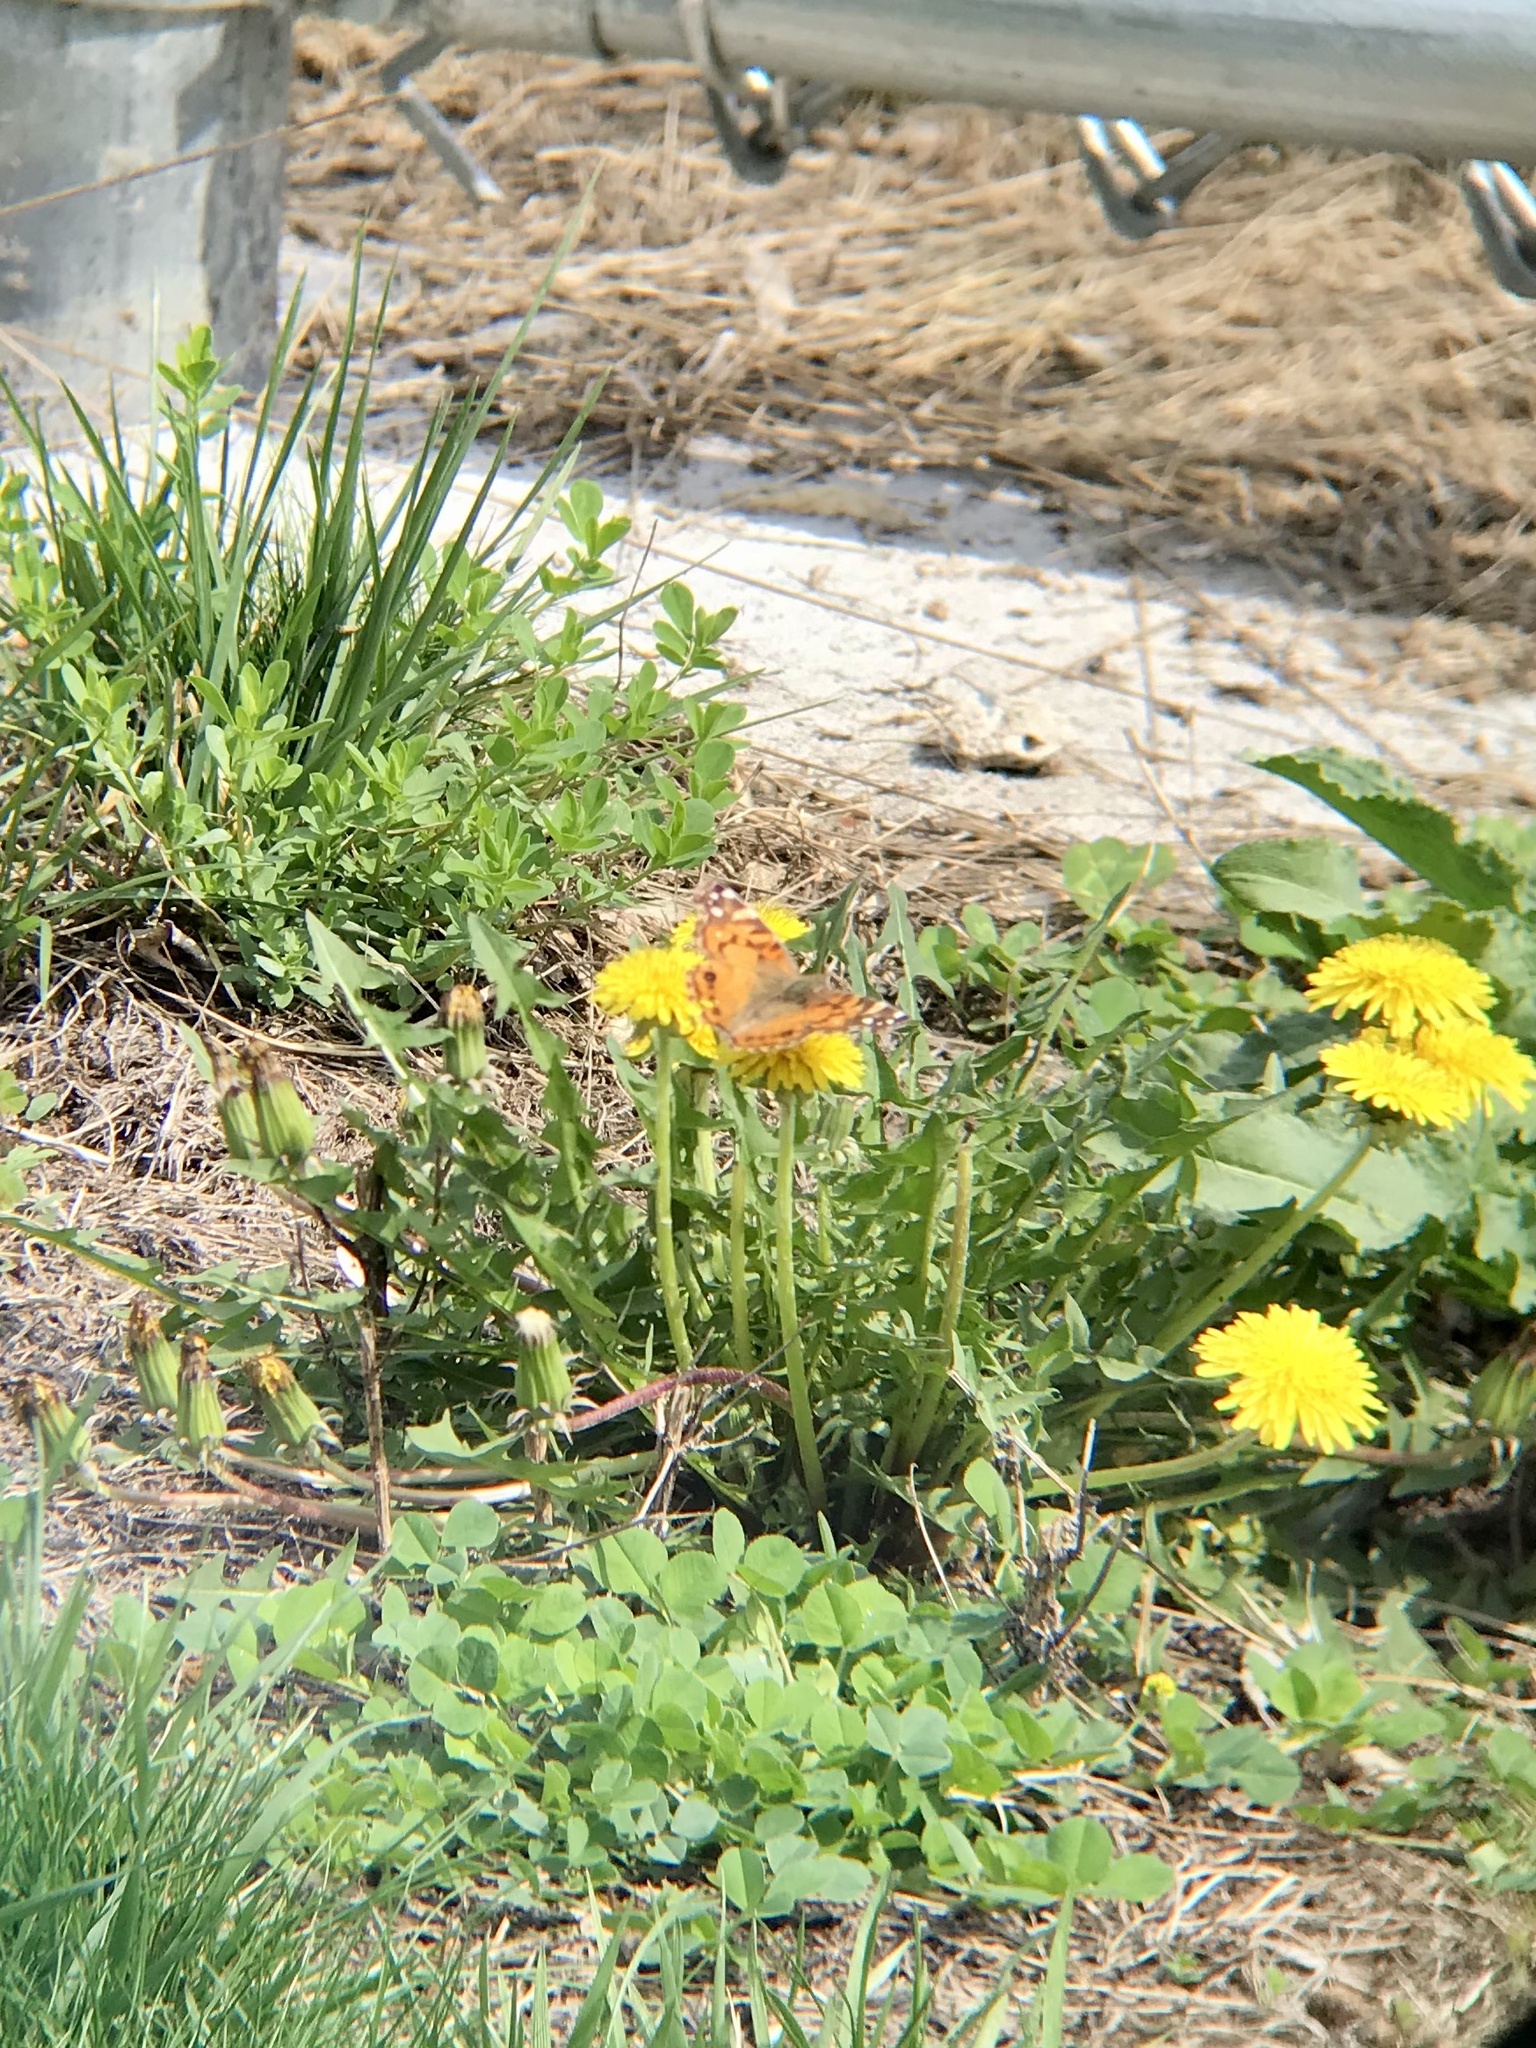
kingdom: Animalia
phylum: Arthropoda
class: Insecta
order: Lepidoptera
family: Nymphalidae
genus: Vanessa
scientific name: Vanessa virginiensis
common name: American lady
